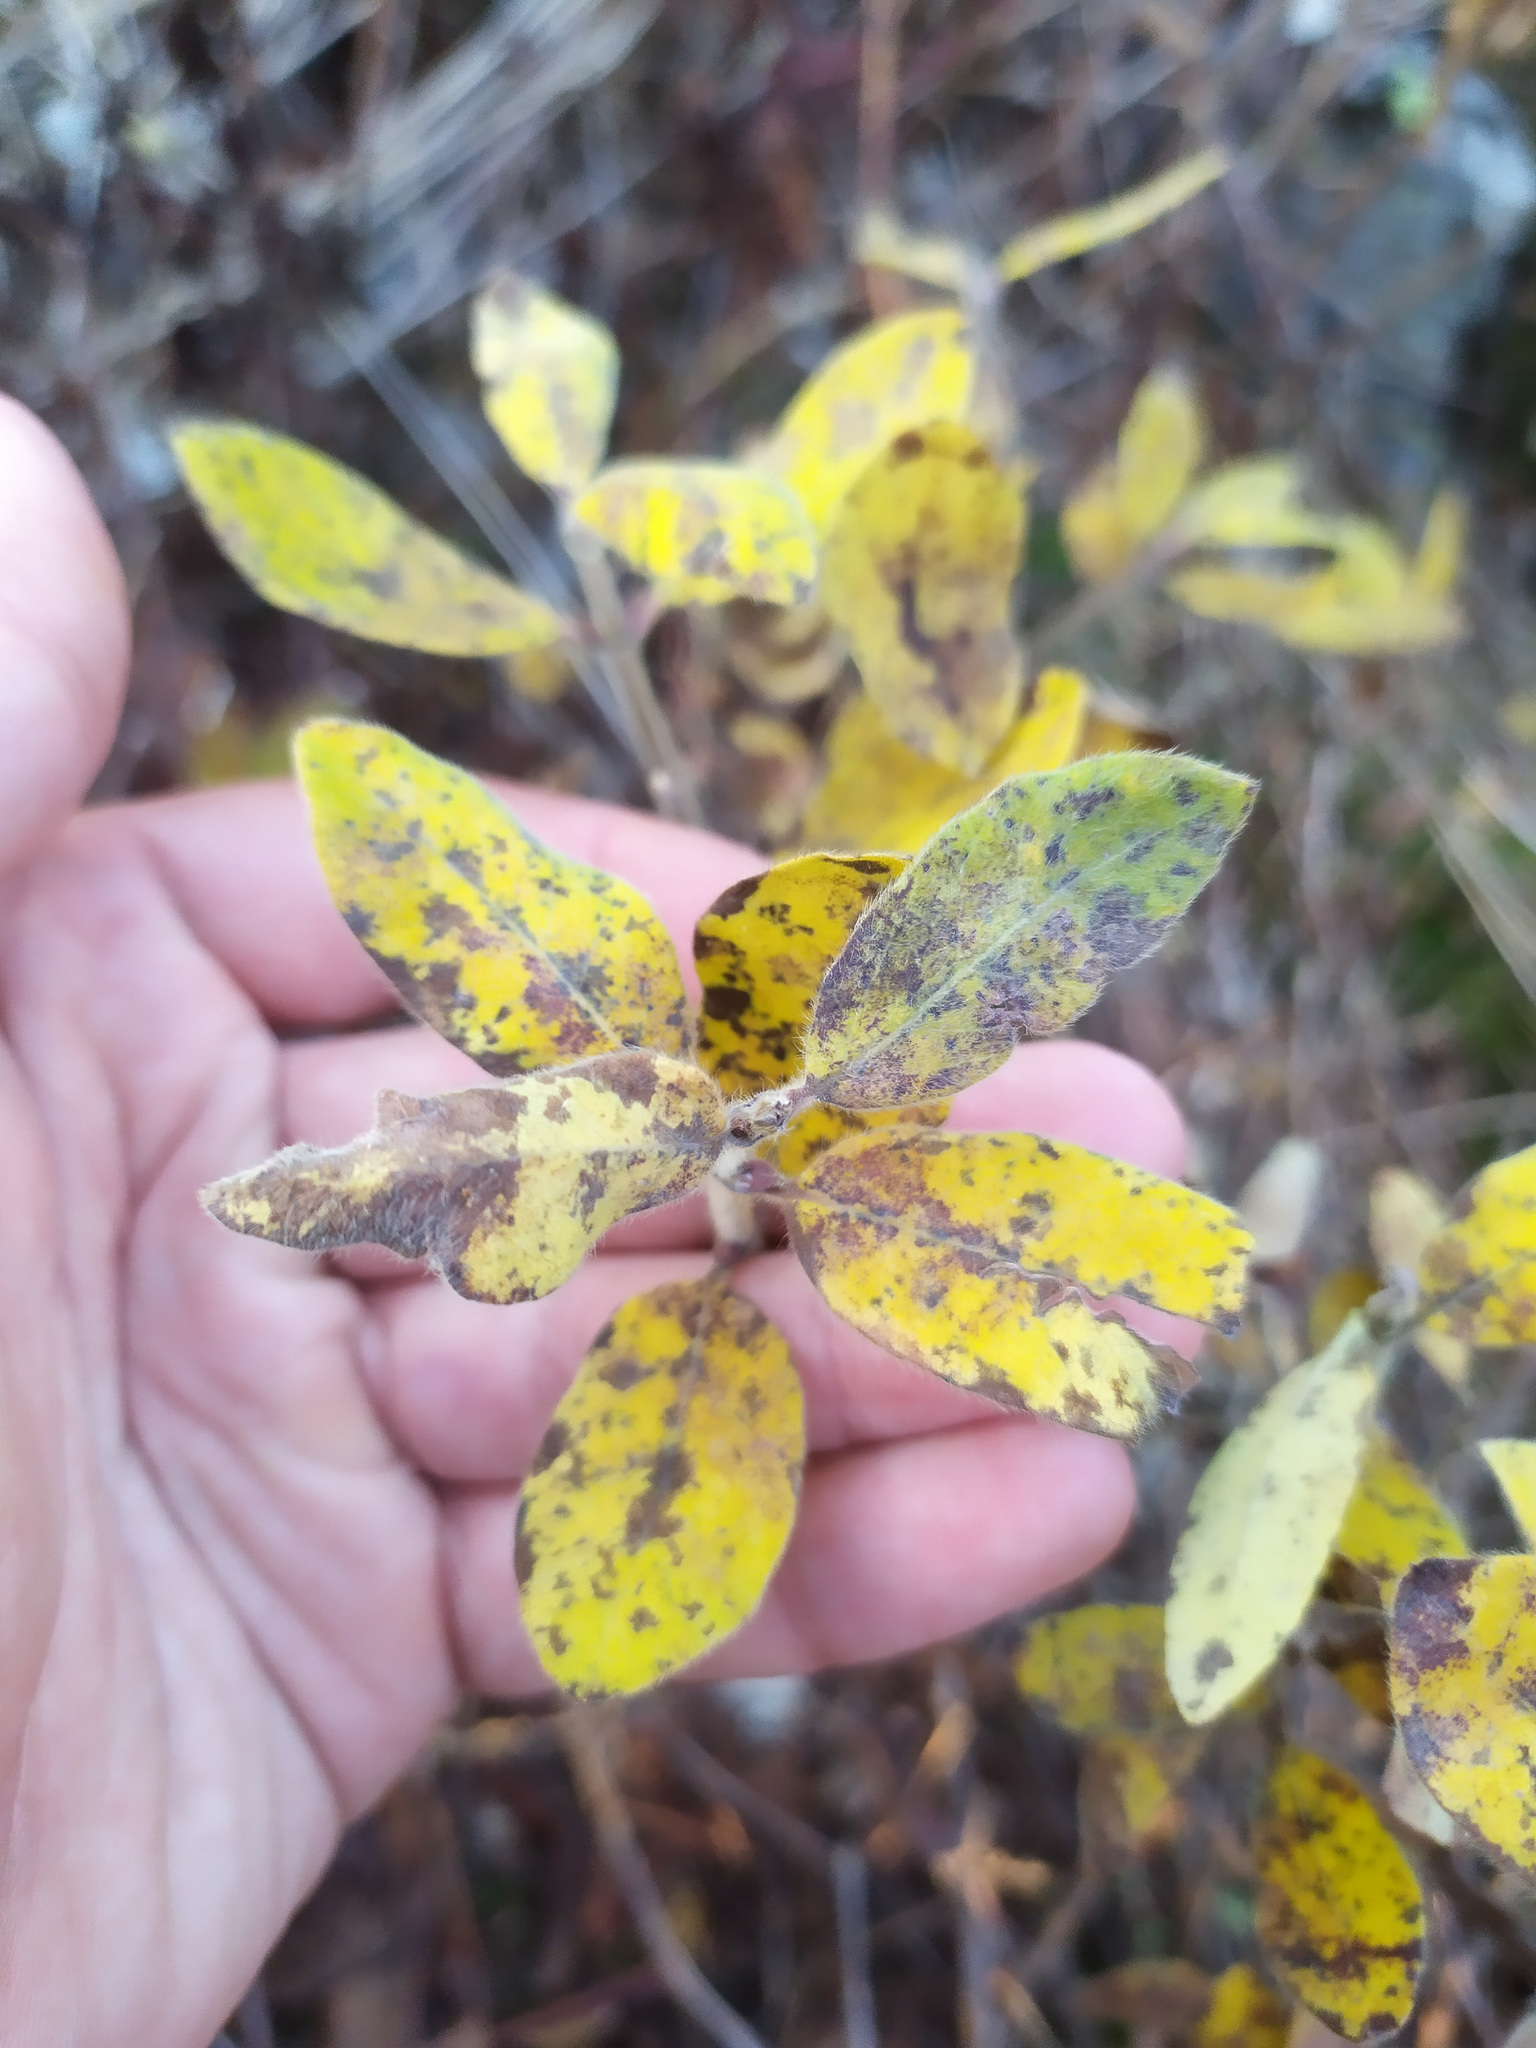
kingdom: Plantae
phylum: Tracheophyta
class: Magnoliopsida
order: Dipsacales
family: Caprifoliaceae
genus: Lonicera
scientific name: Lonicera caerulea
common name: Blue honeysuckle
